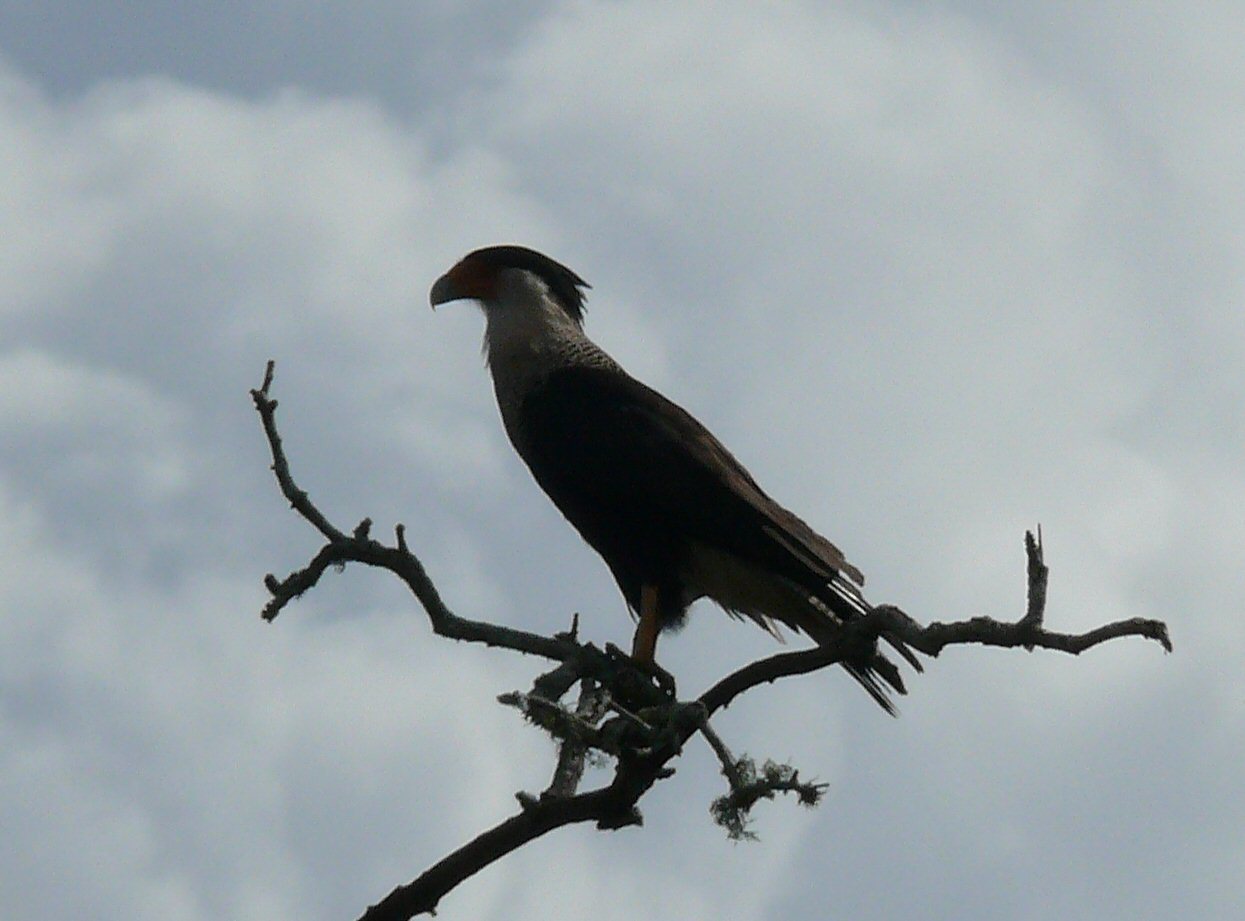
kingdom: Animalia
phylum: Chordata
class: Aves
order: Falconiformes
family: Falconidae
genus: Caracara
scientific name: Caracara plancus
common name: Southern caracara
